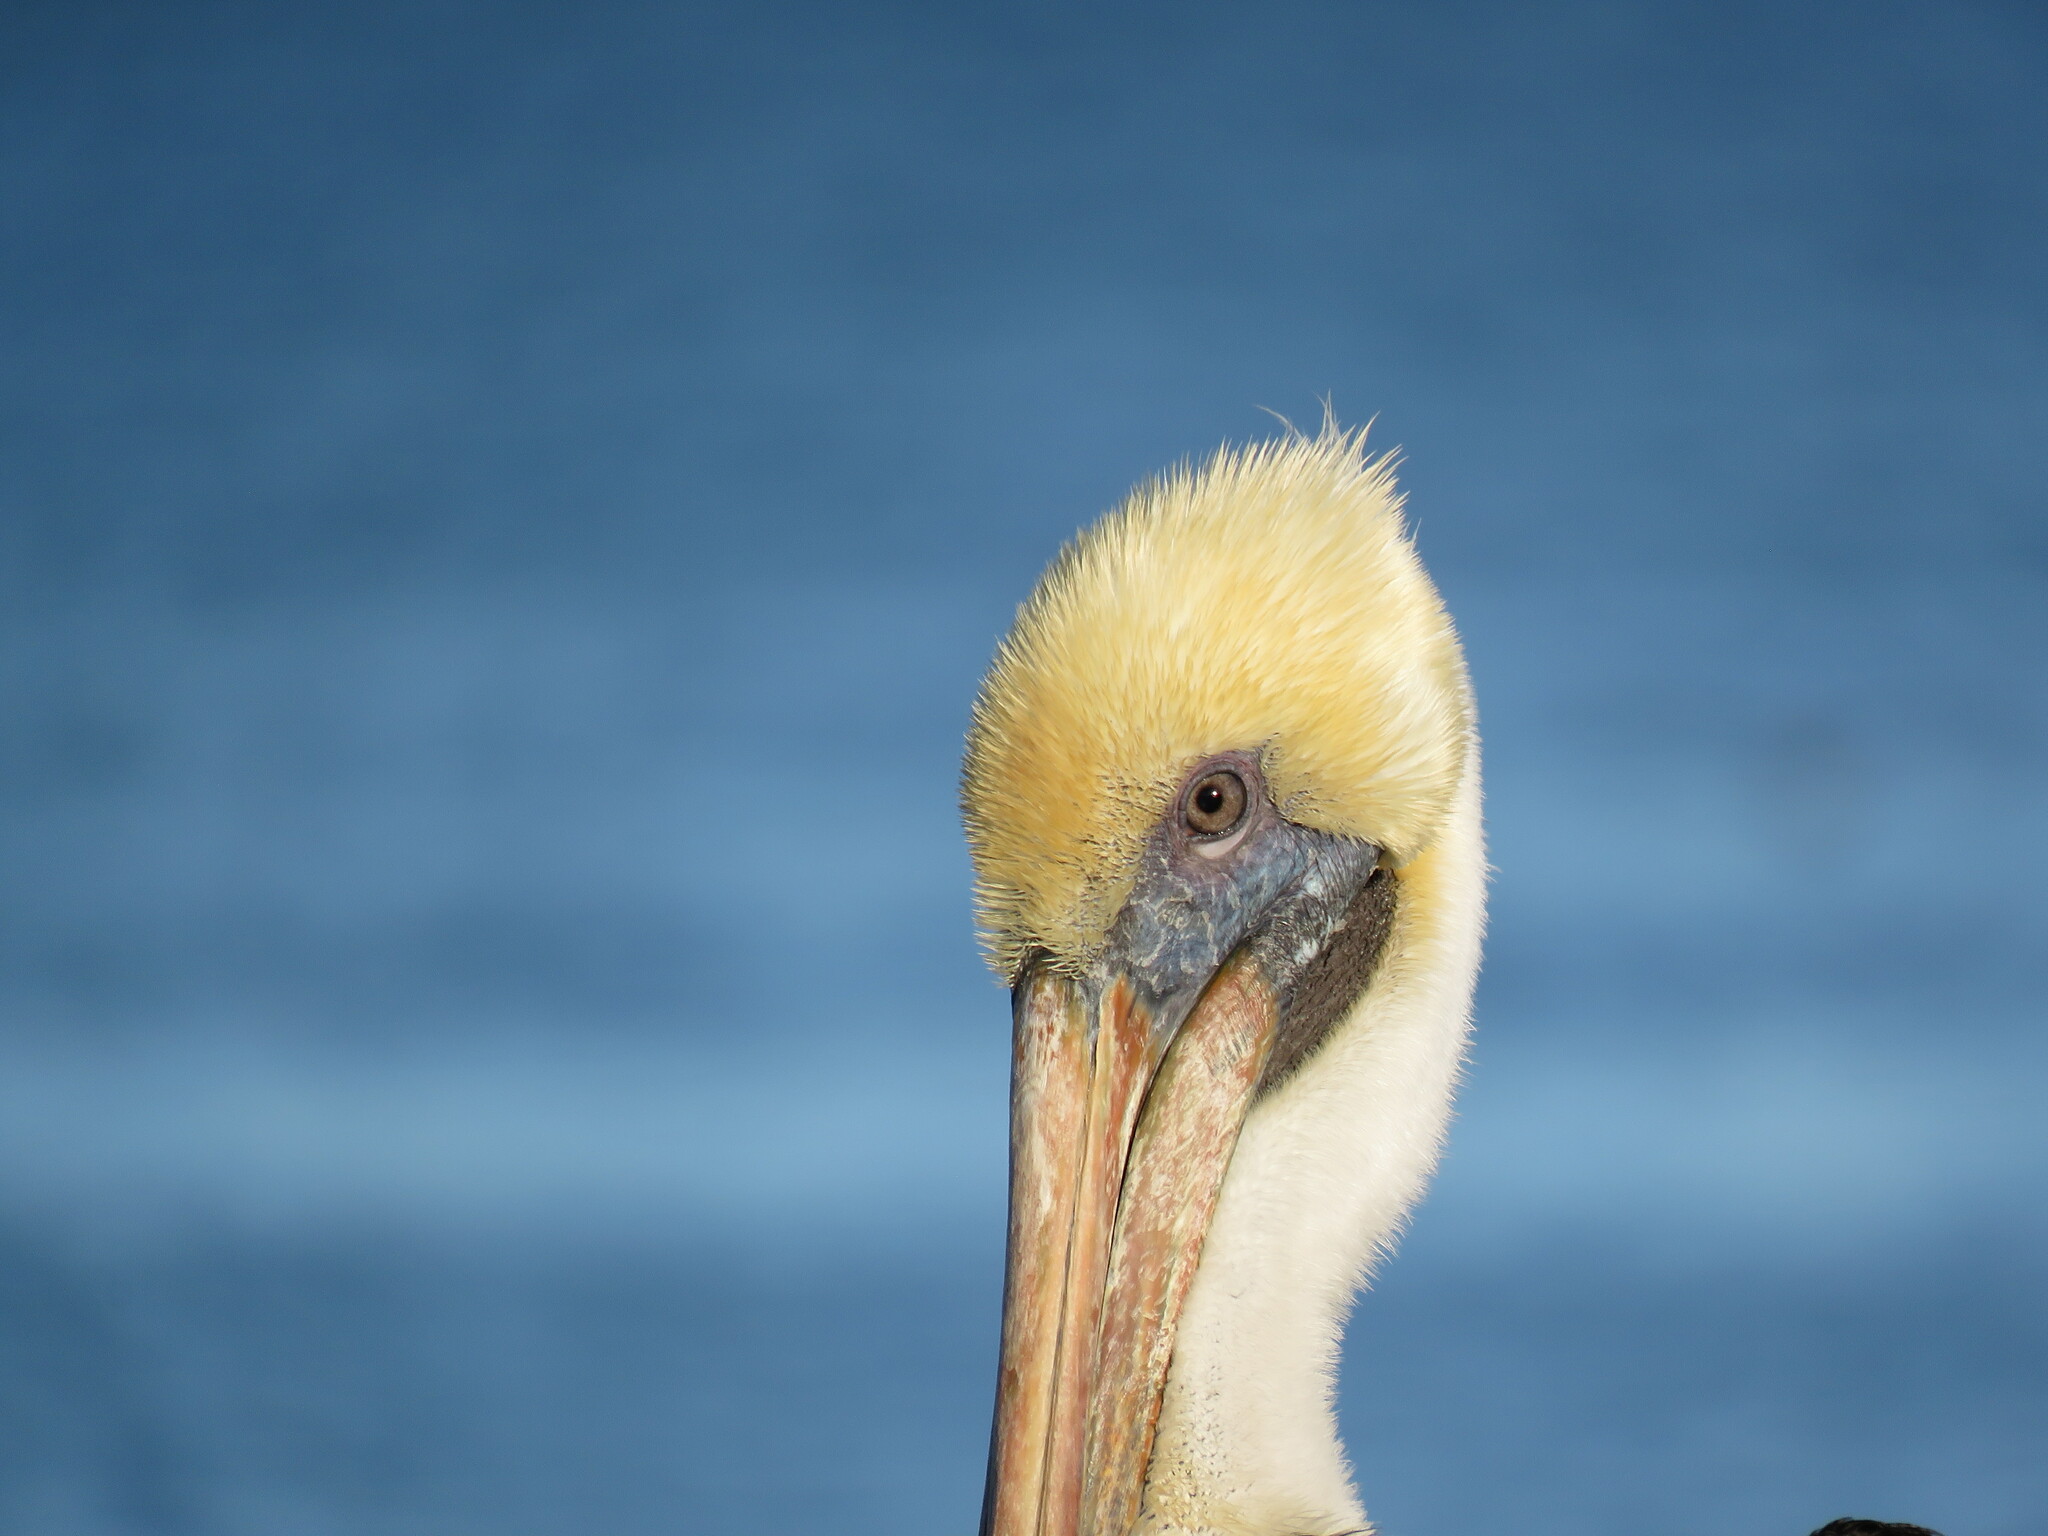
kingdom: Animalia
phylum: Chordata
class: Aves
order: Pelecaniformes
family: Pelecanidae
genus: Pelecanus
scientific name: Pelecanus occidentalis
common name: Brown pelican
